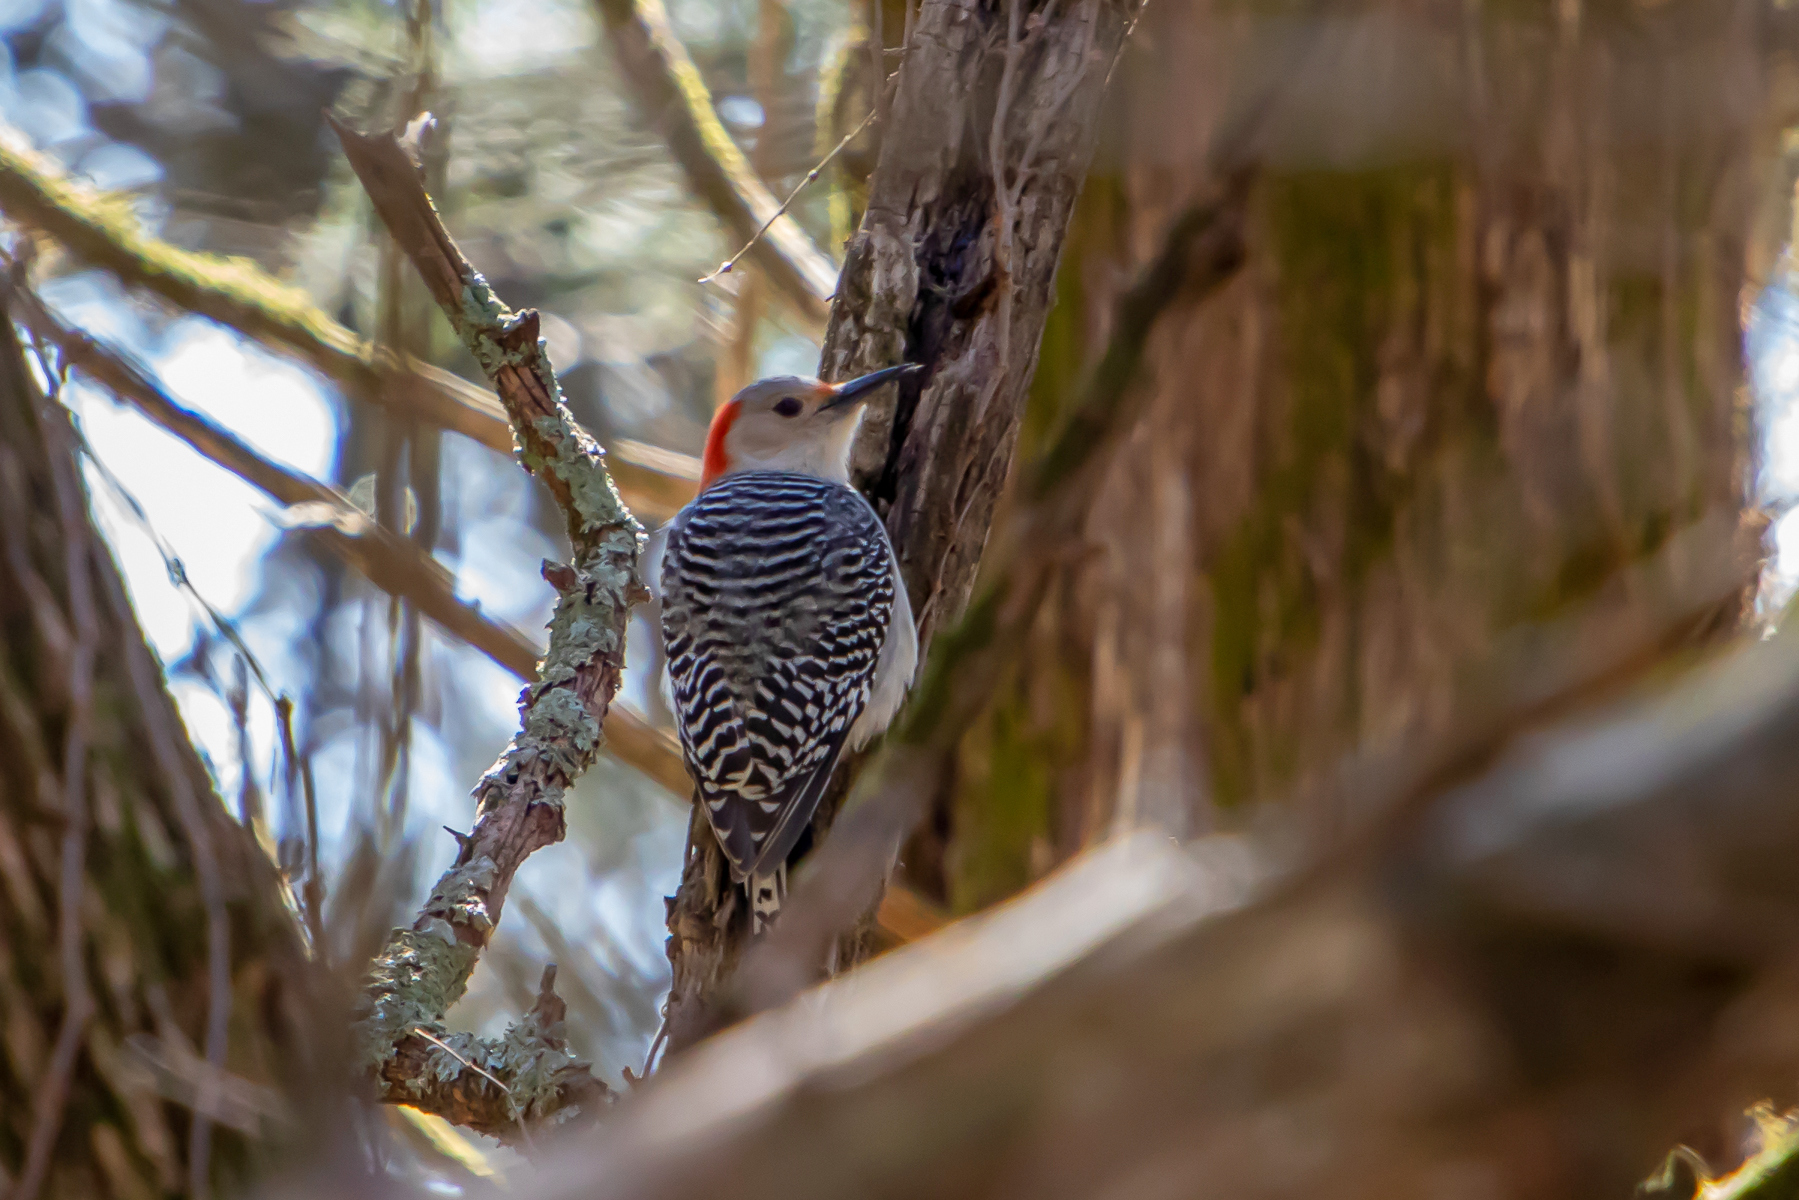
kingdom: Animalia
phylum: Chordata
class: Aves
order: Piciformes
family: Picidae
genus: Melanerpes
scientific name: Melanerpes carolinus
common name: Red-bellied woodpecker
